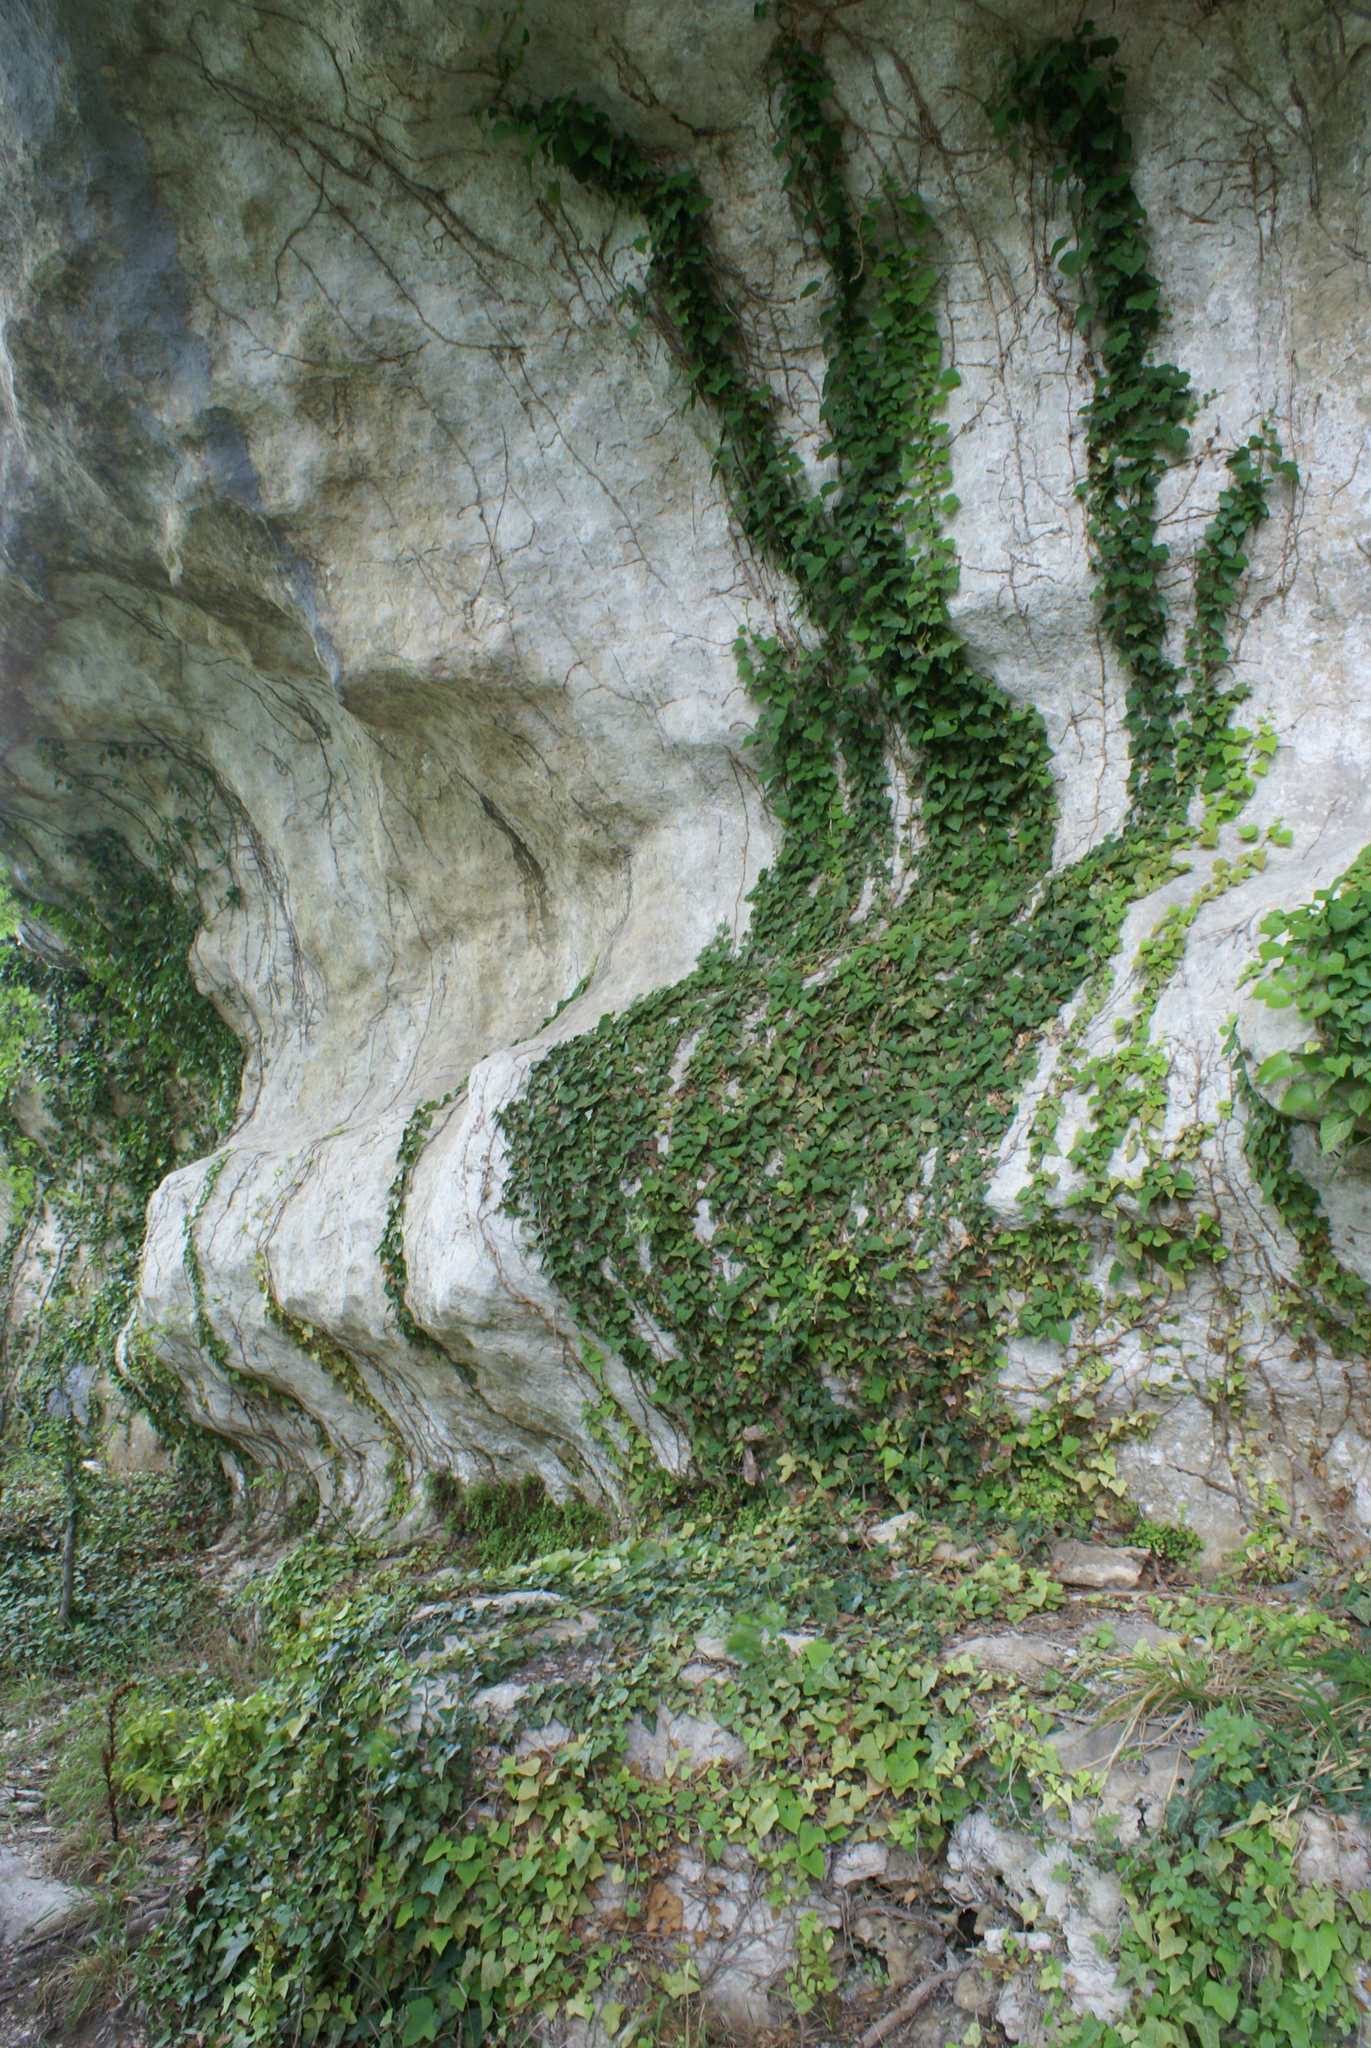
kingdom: Plantae
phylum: Tracheophyta
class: Magnoliopsida
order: Apiales
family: Araliaceae
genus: Hedera
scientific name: Hedera helix
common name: Ivy
